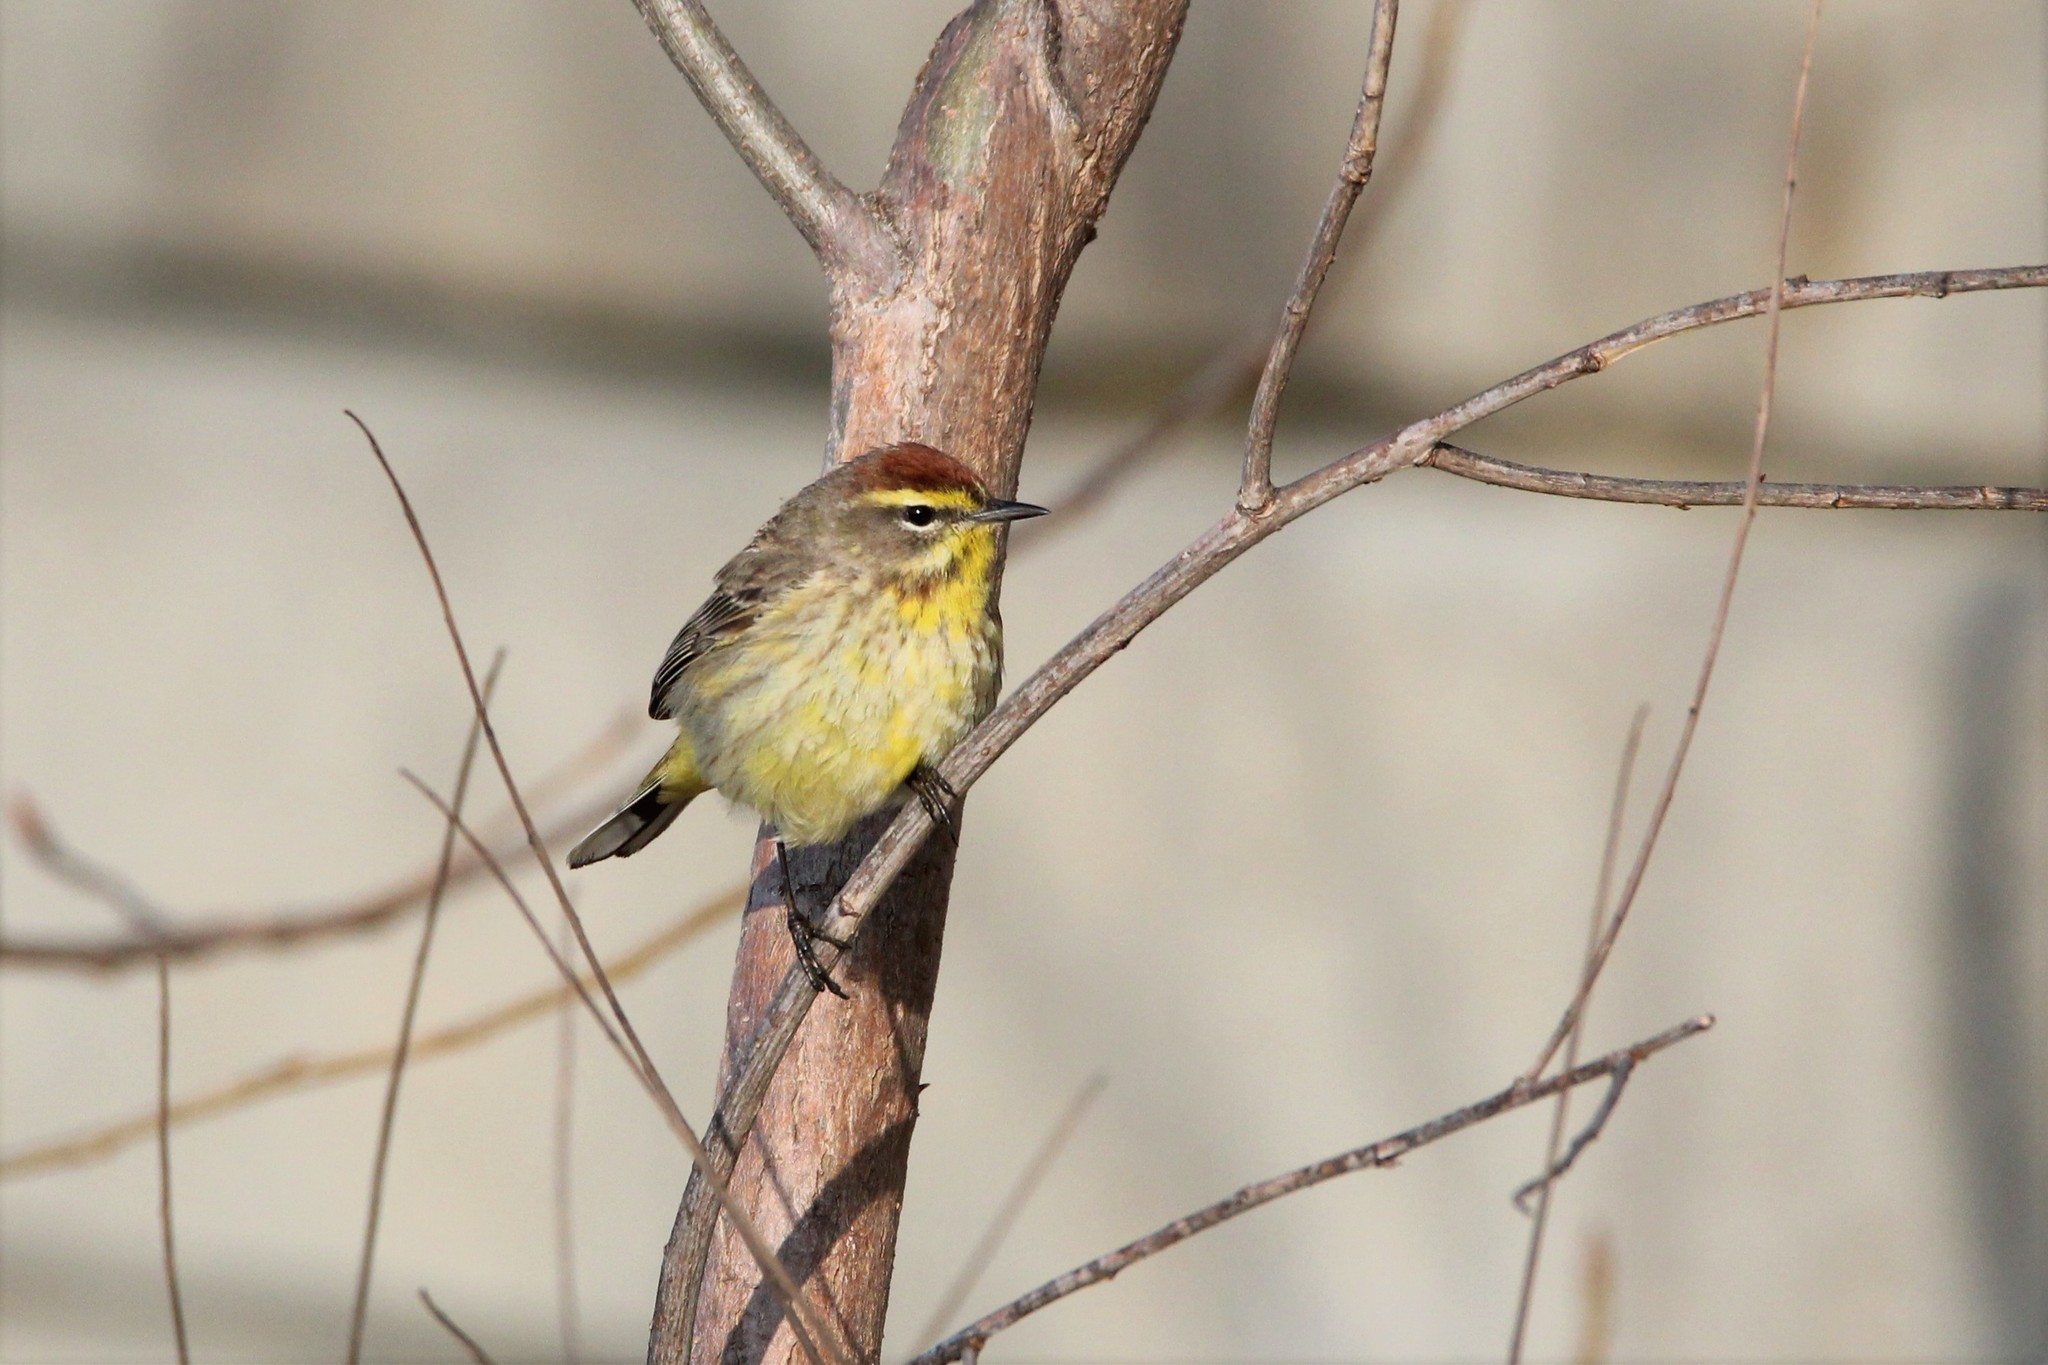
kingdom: Animalia
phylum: Chordata
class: Aves
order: Passeriformes
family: Parulidae
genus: Setophaga
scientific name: Setophaga palmarum
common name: Palm warbler
